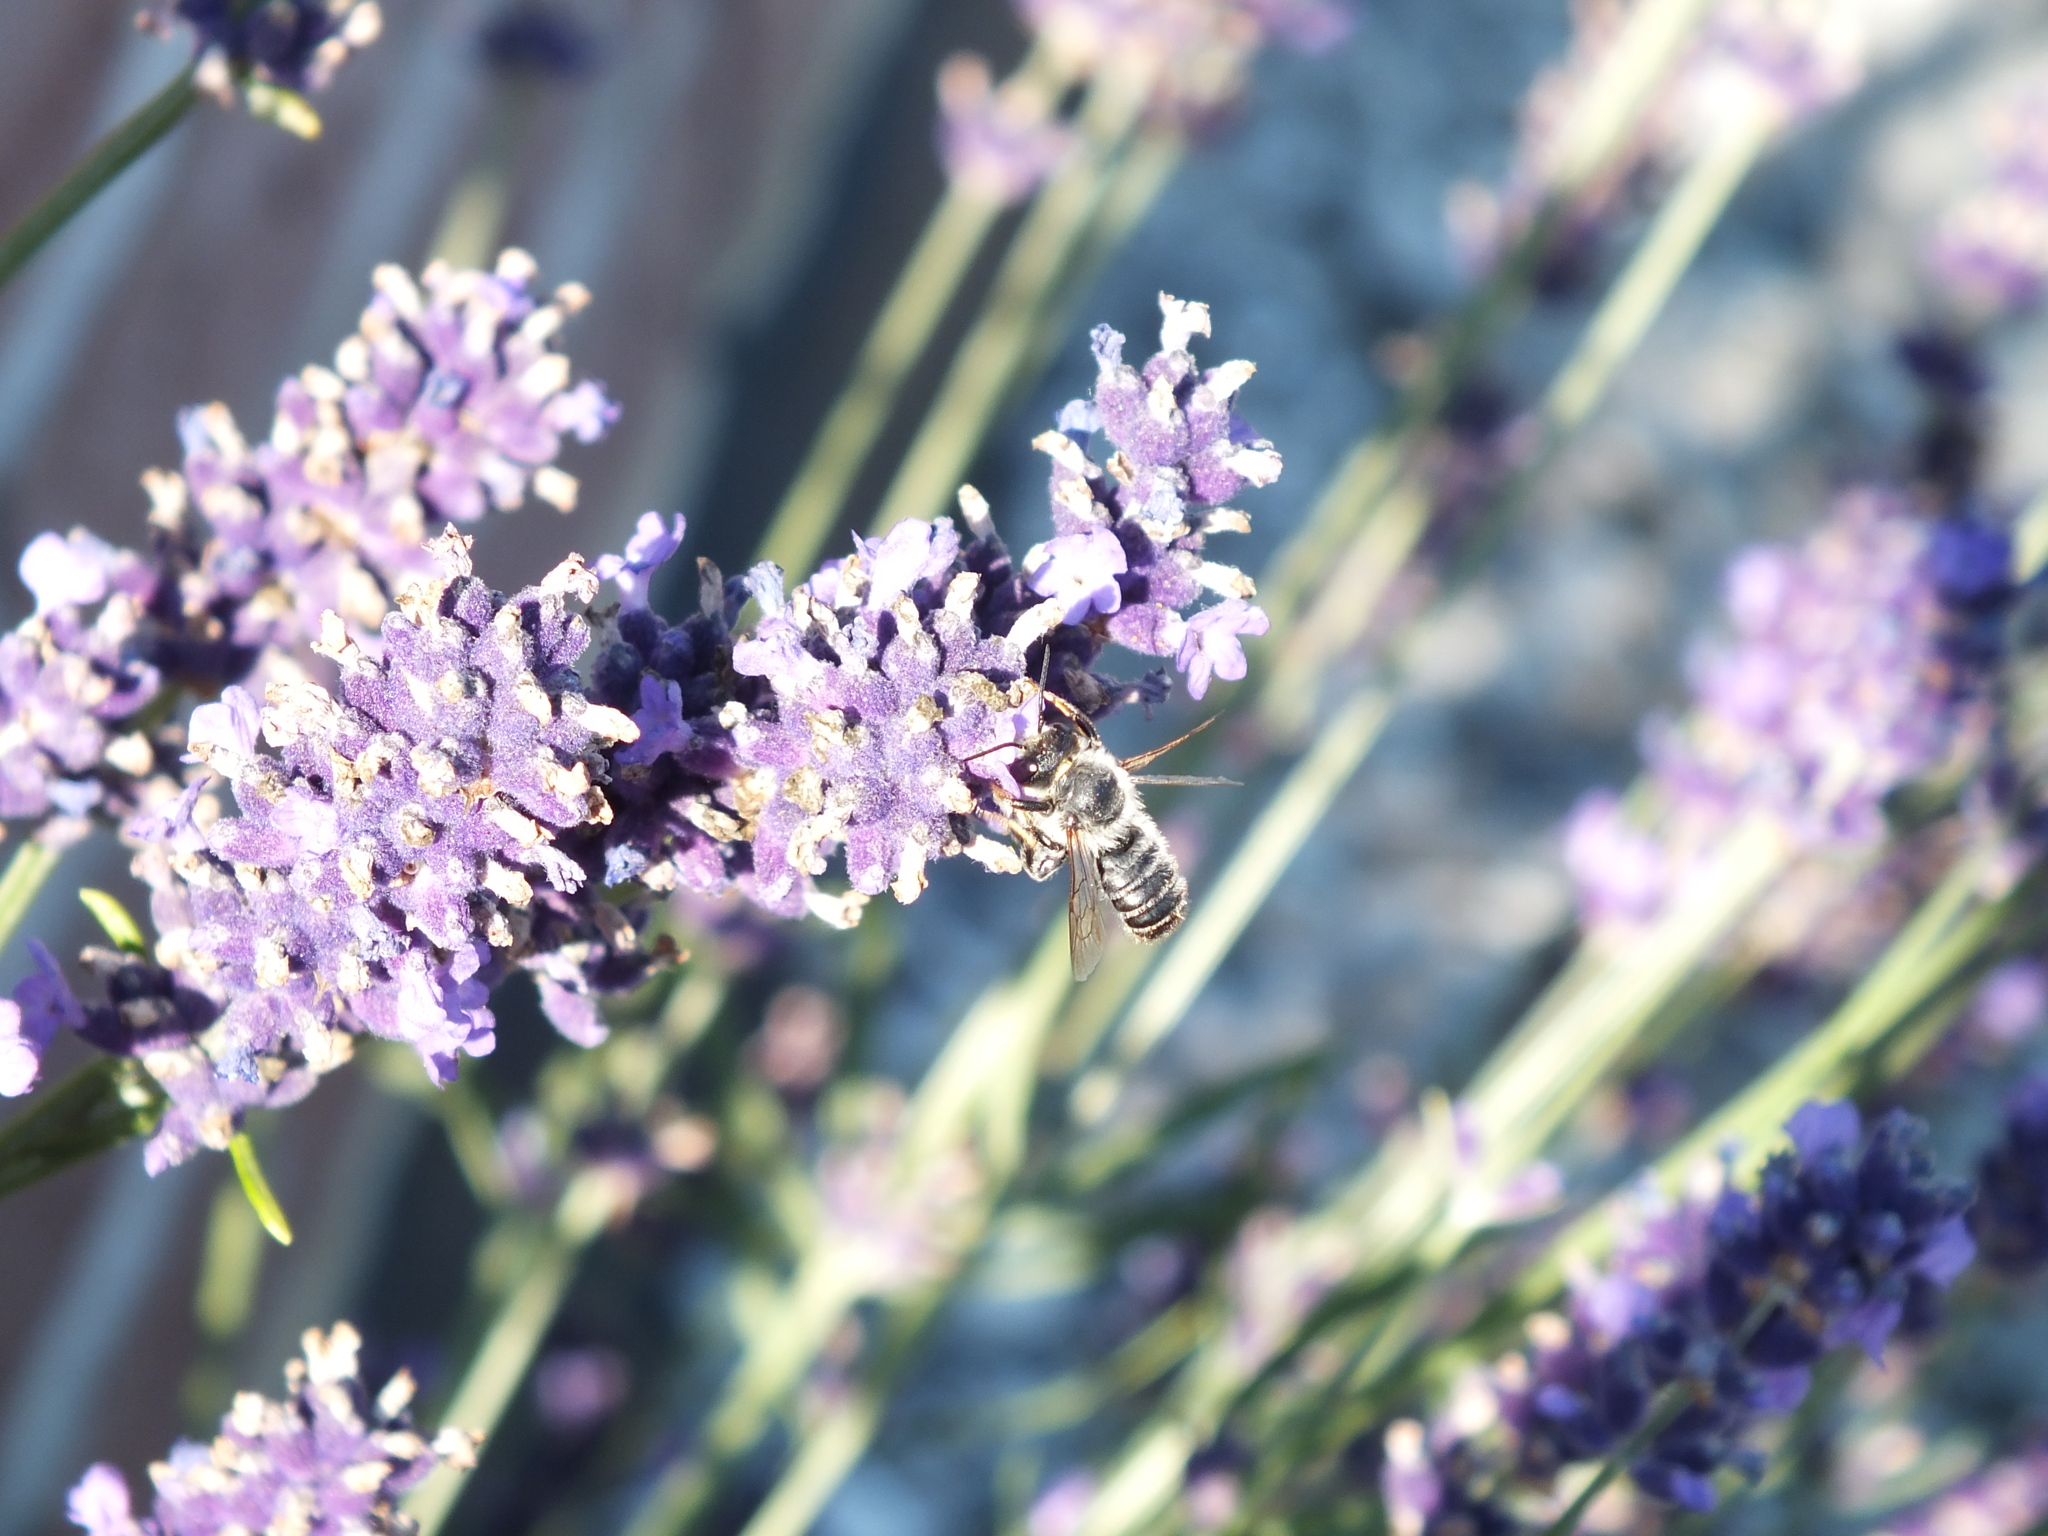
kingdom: Animalia
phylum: Arthropoda
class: Insecta
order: Hymenoptera
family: Megachilidae
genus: Megachile
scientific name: Megachile ericetorum
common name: Leafcutter bee
